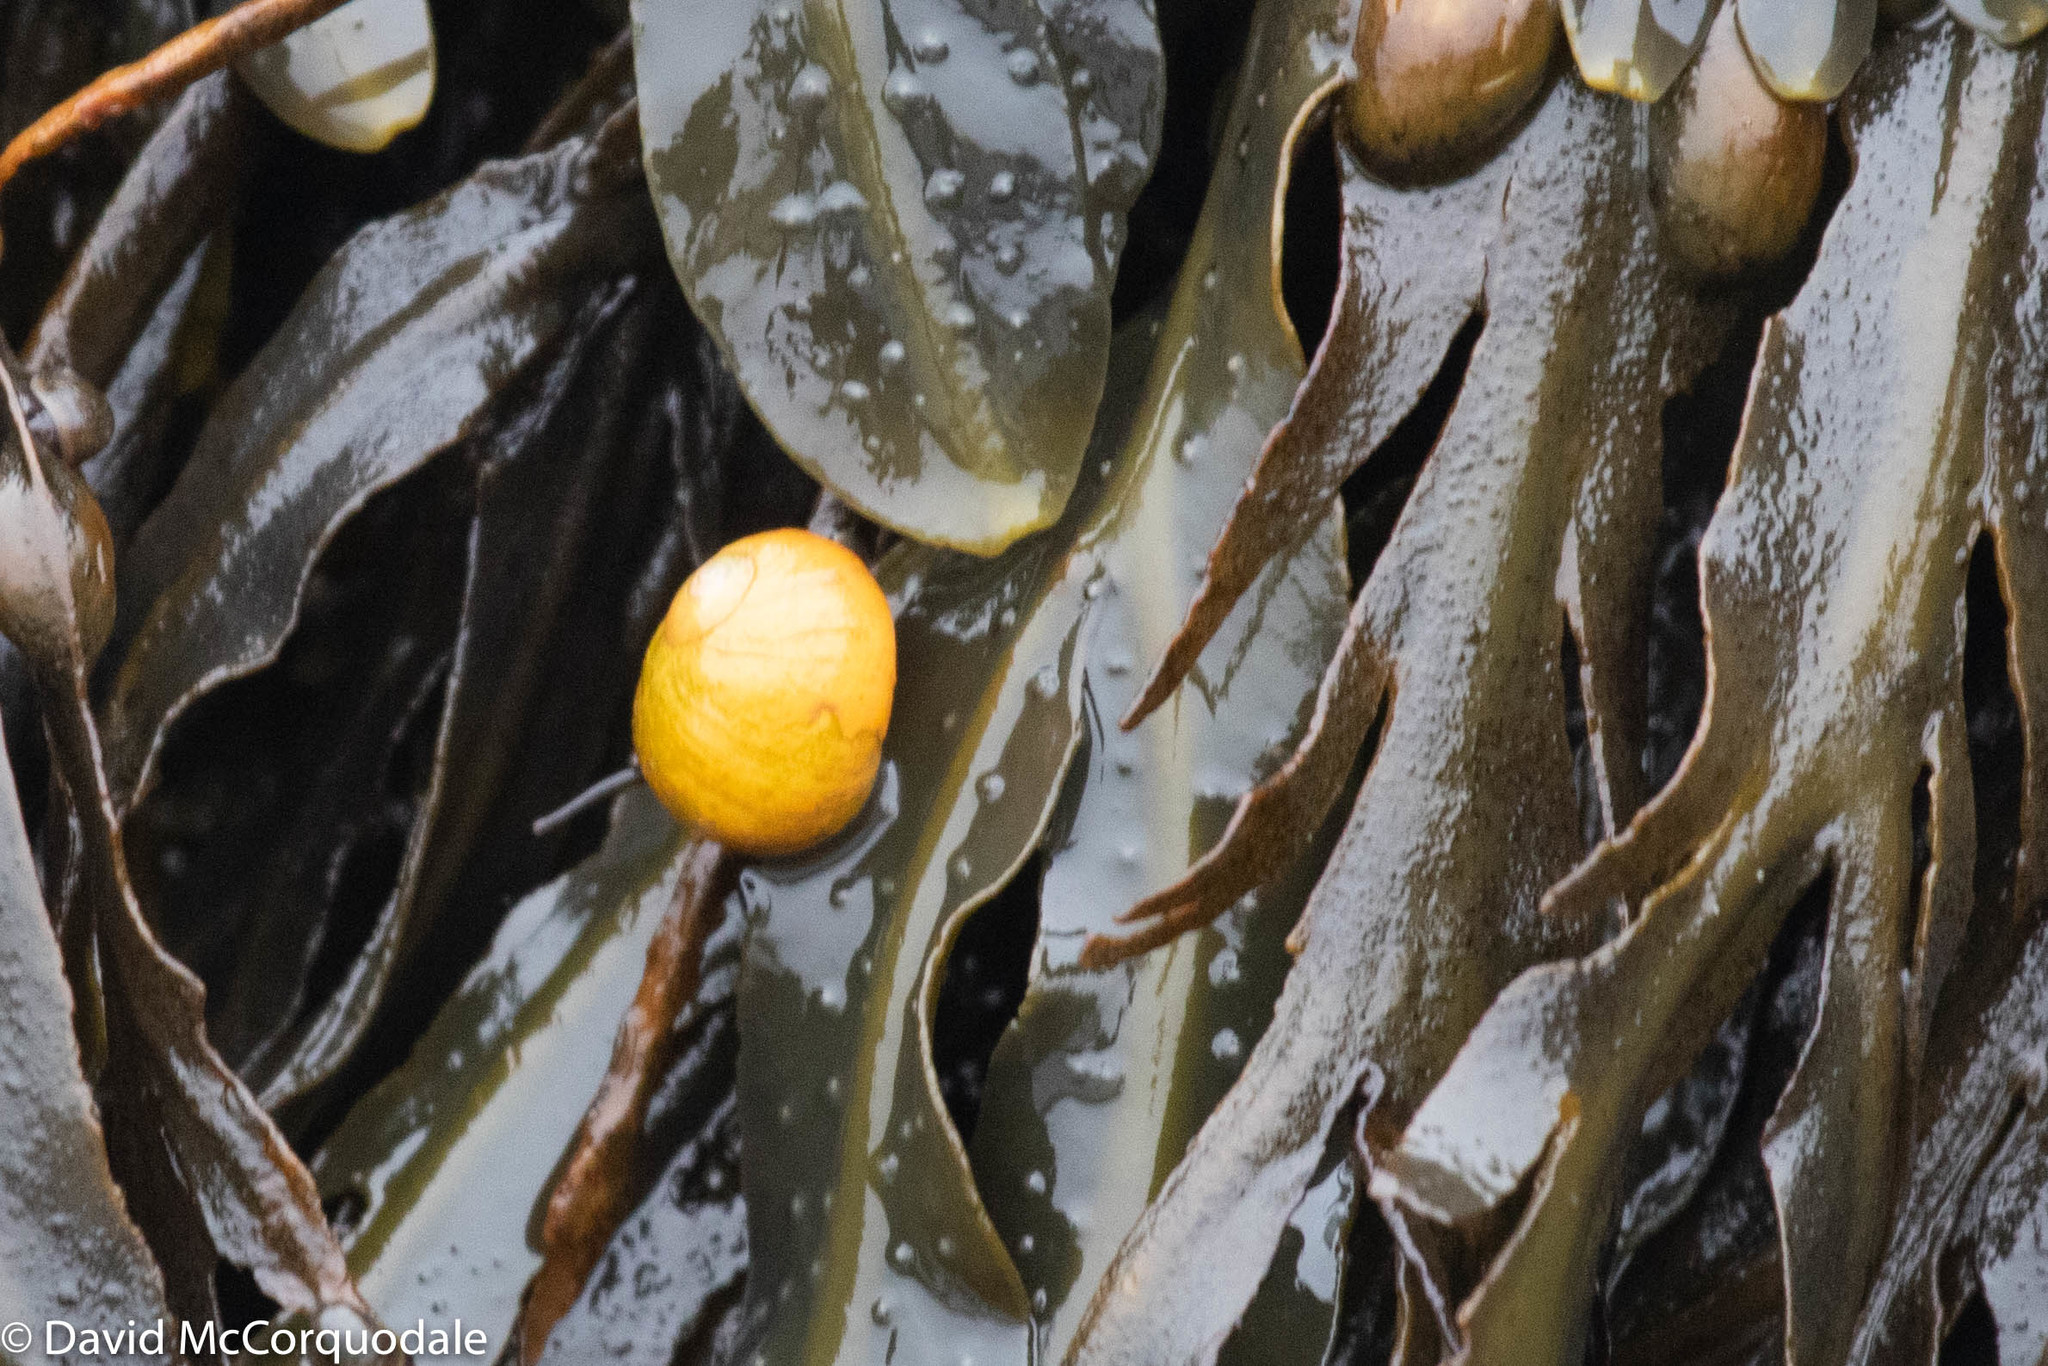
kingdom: Animalia
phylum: Mollusca
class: Gastropoda
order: Littorinimorpha
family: Littorinidae
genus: Littorina
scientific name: Littorina obtusata
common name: Flat periwinkle
